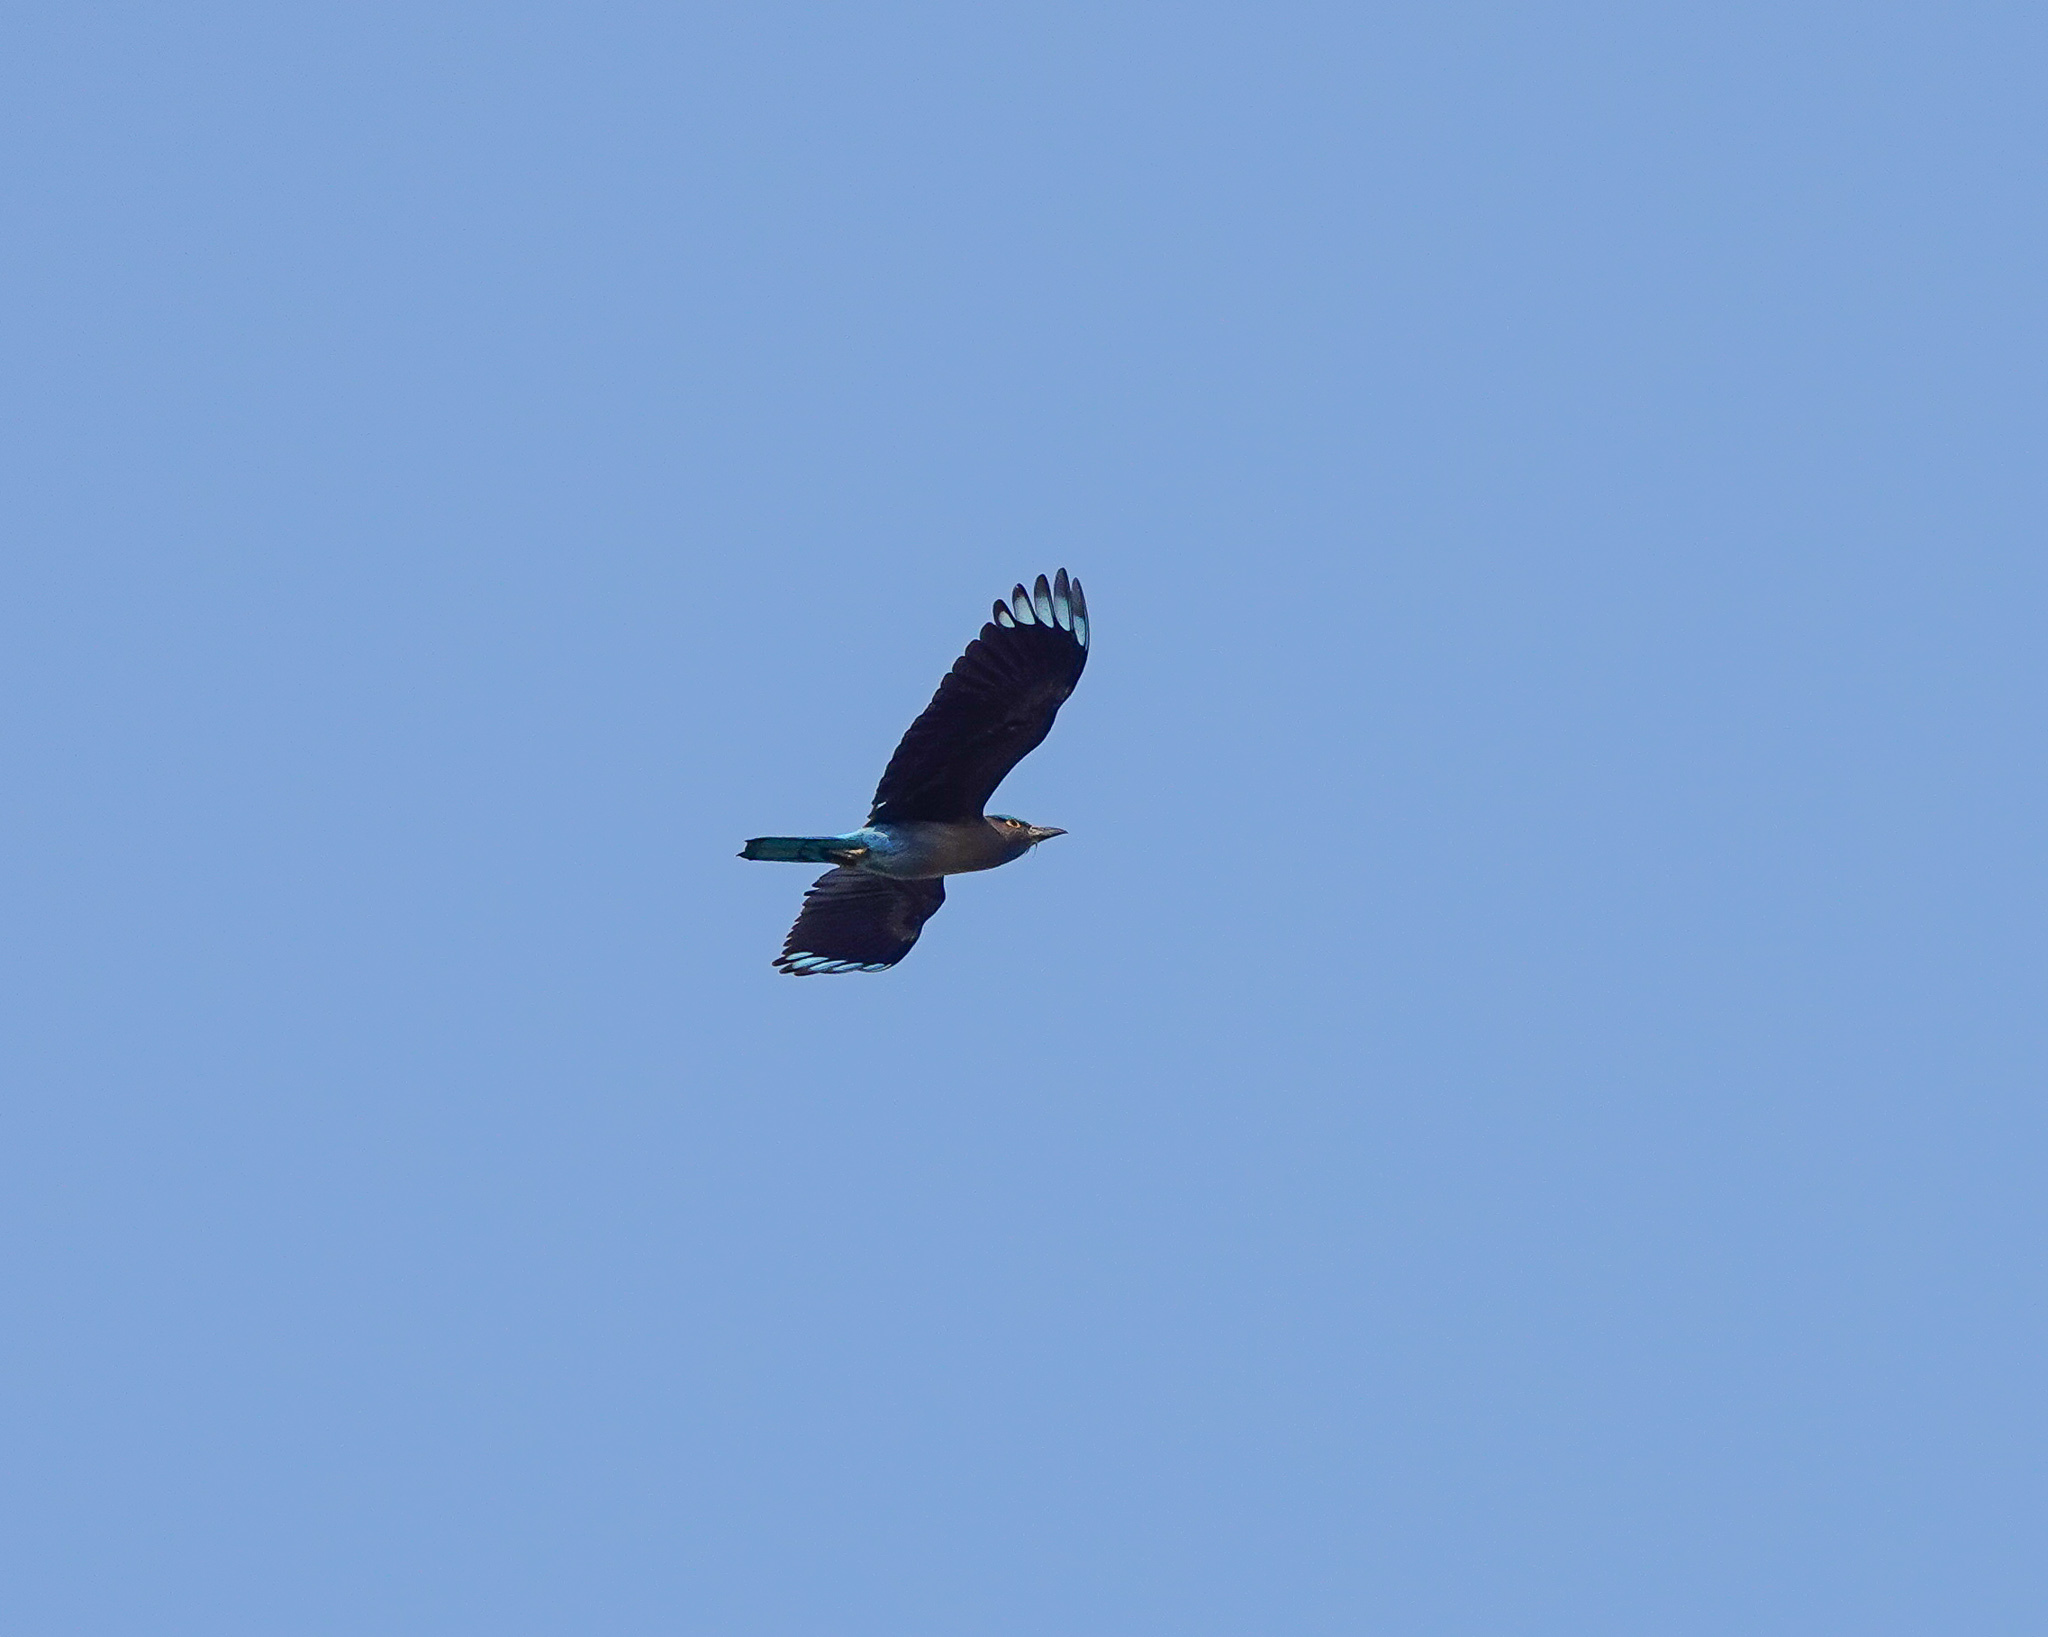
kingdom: Animalia
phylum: Chordata
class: Aves
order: Coraciiformes
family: Coraciidae
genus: Coracias
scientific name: Coracias affinis
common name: Indochinese roller
